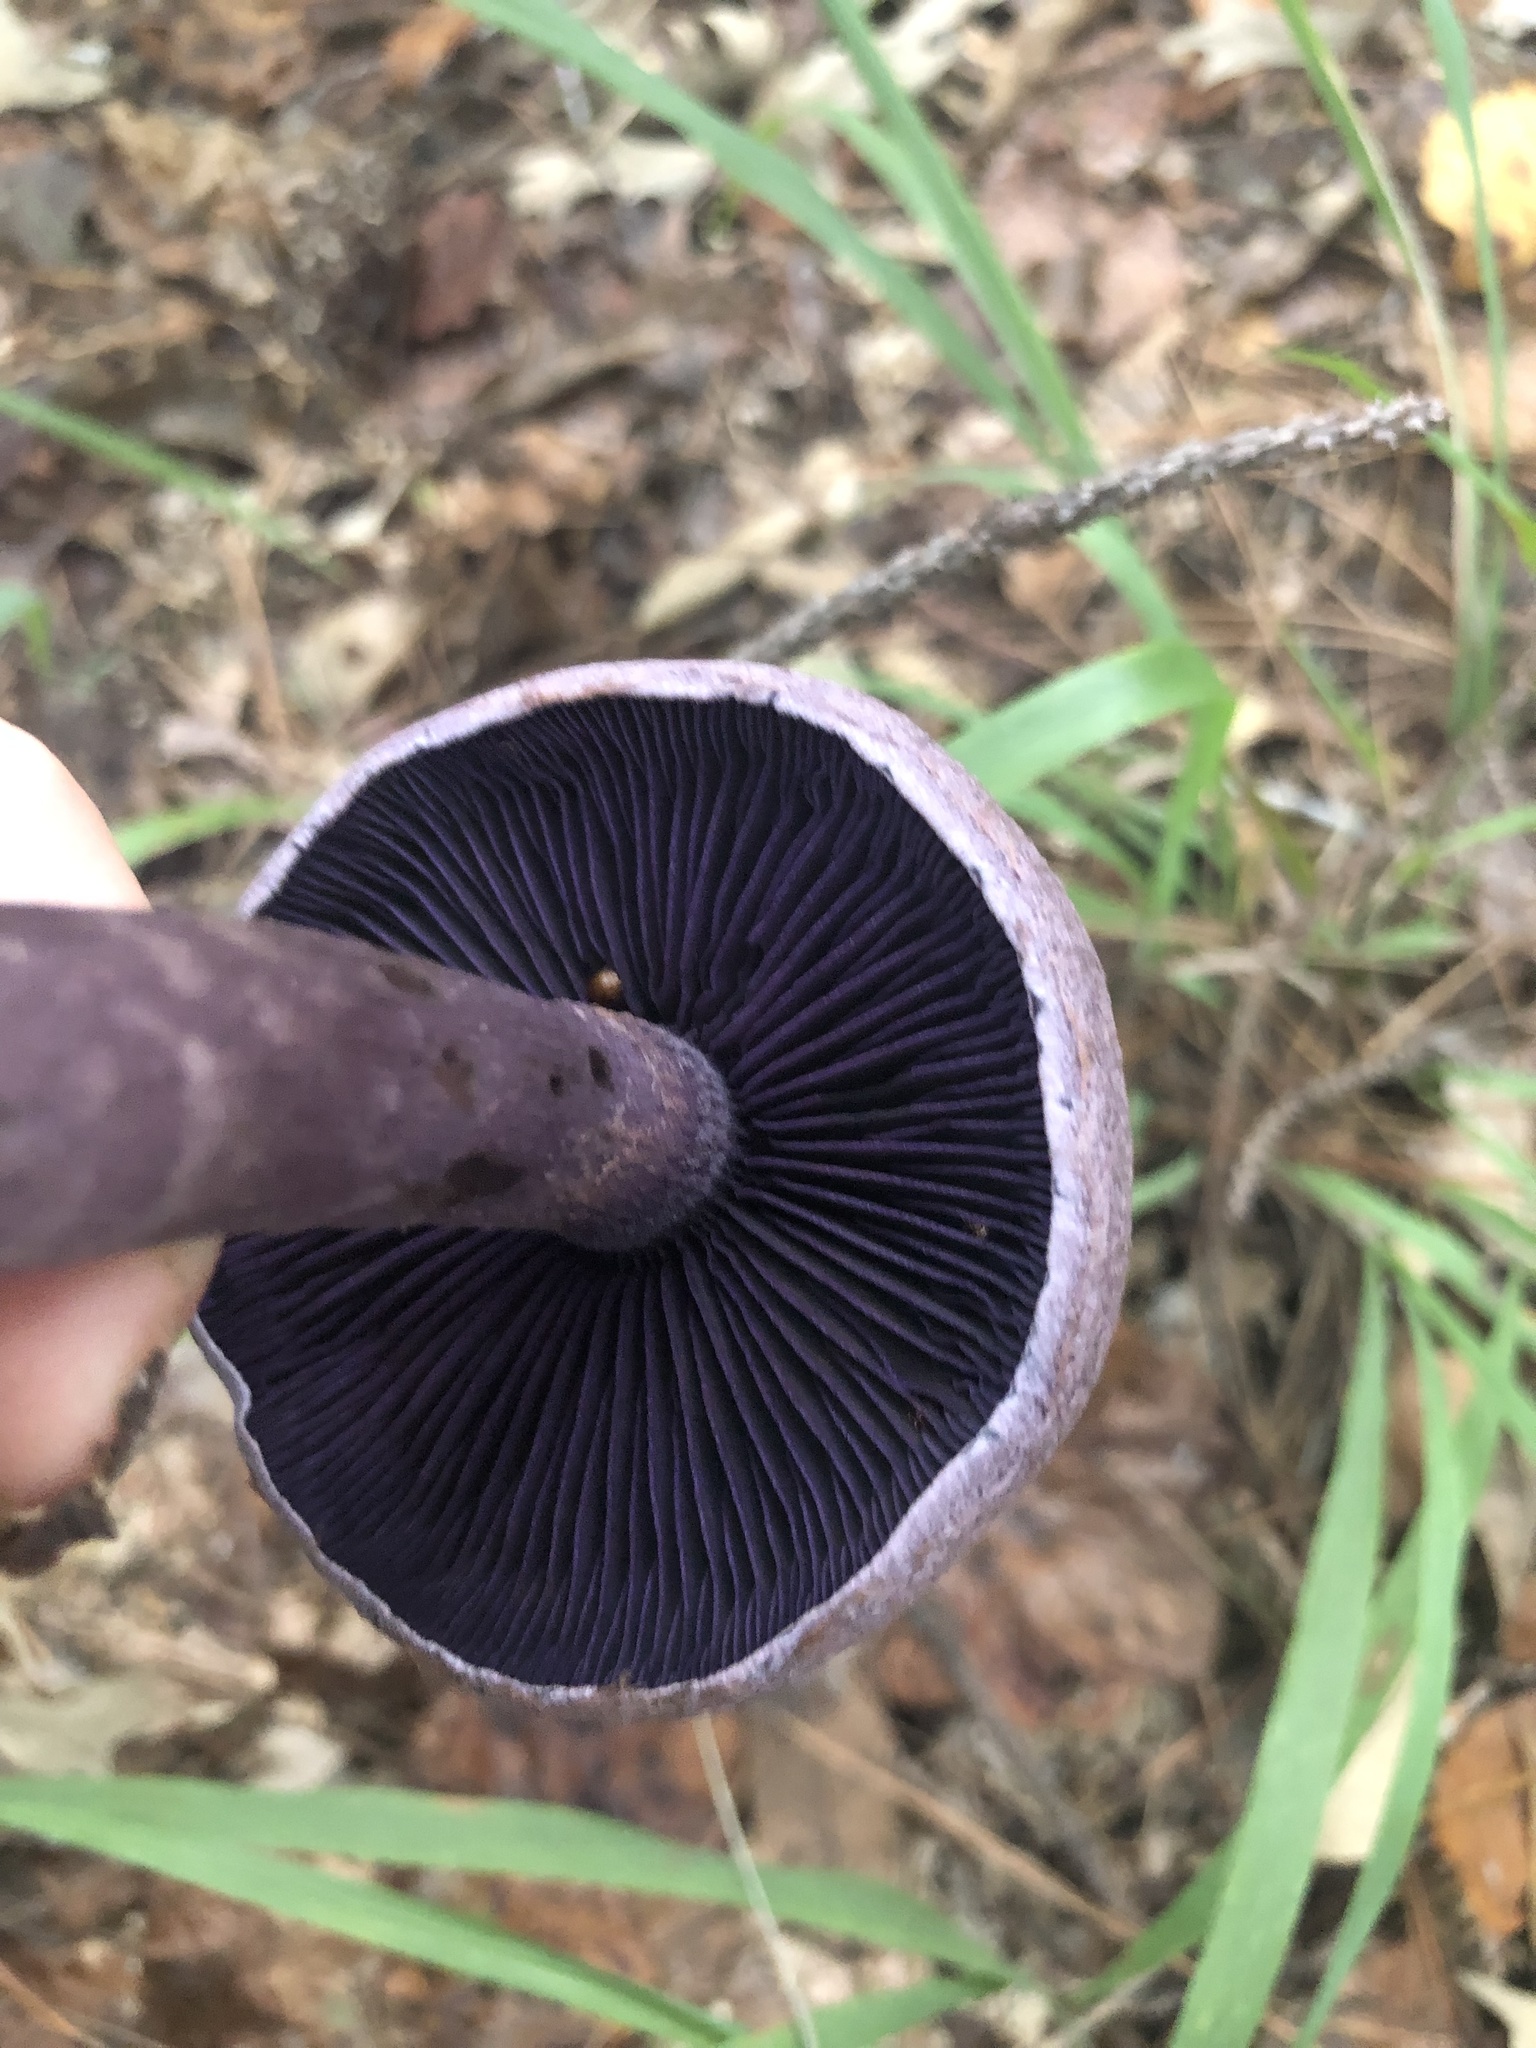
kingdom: Fungi
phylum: Basidiomycota
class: Agaricomycetes
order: Agaricales
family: Cortinariaceae
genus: Cortinarius
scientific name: Cortinarius violaceus
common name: Violet webcap
